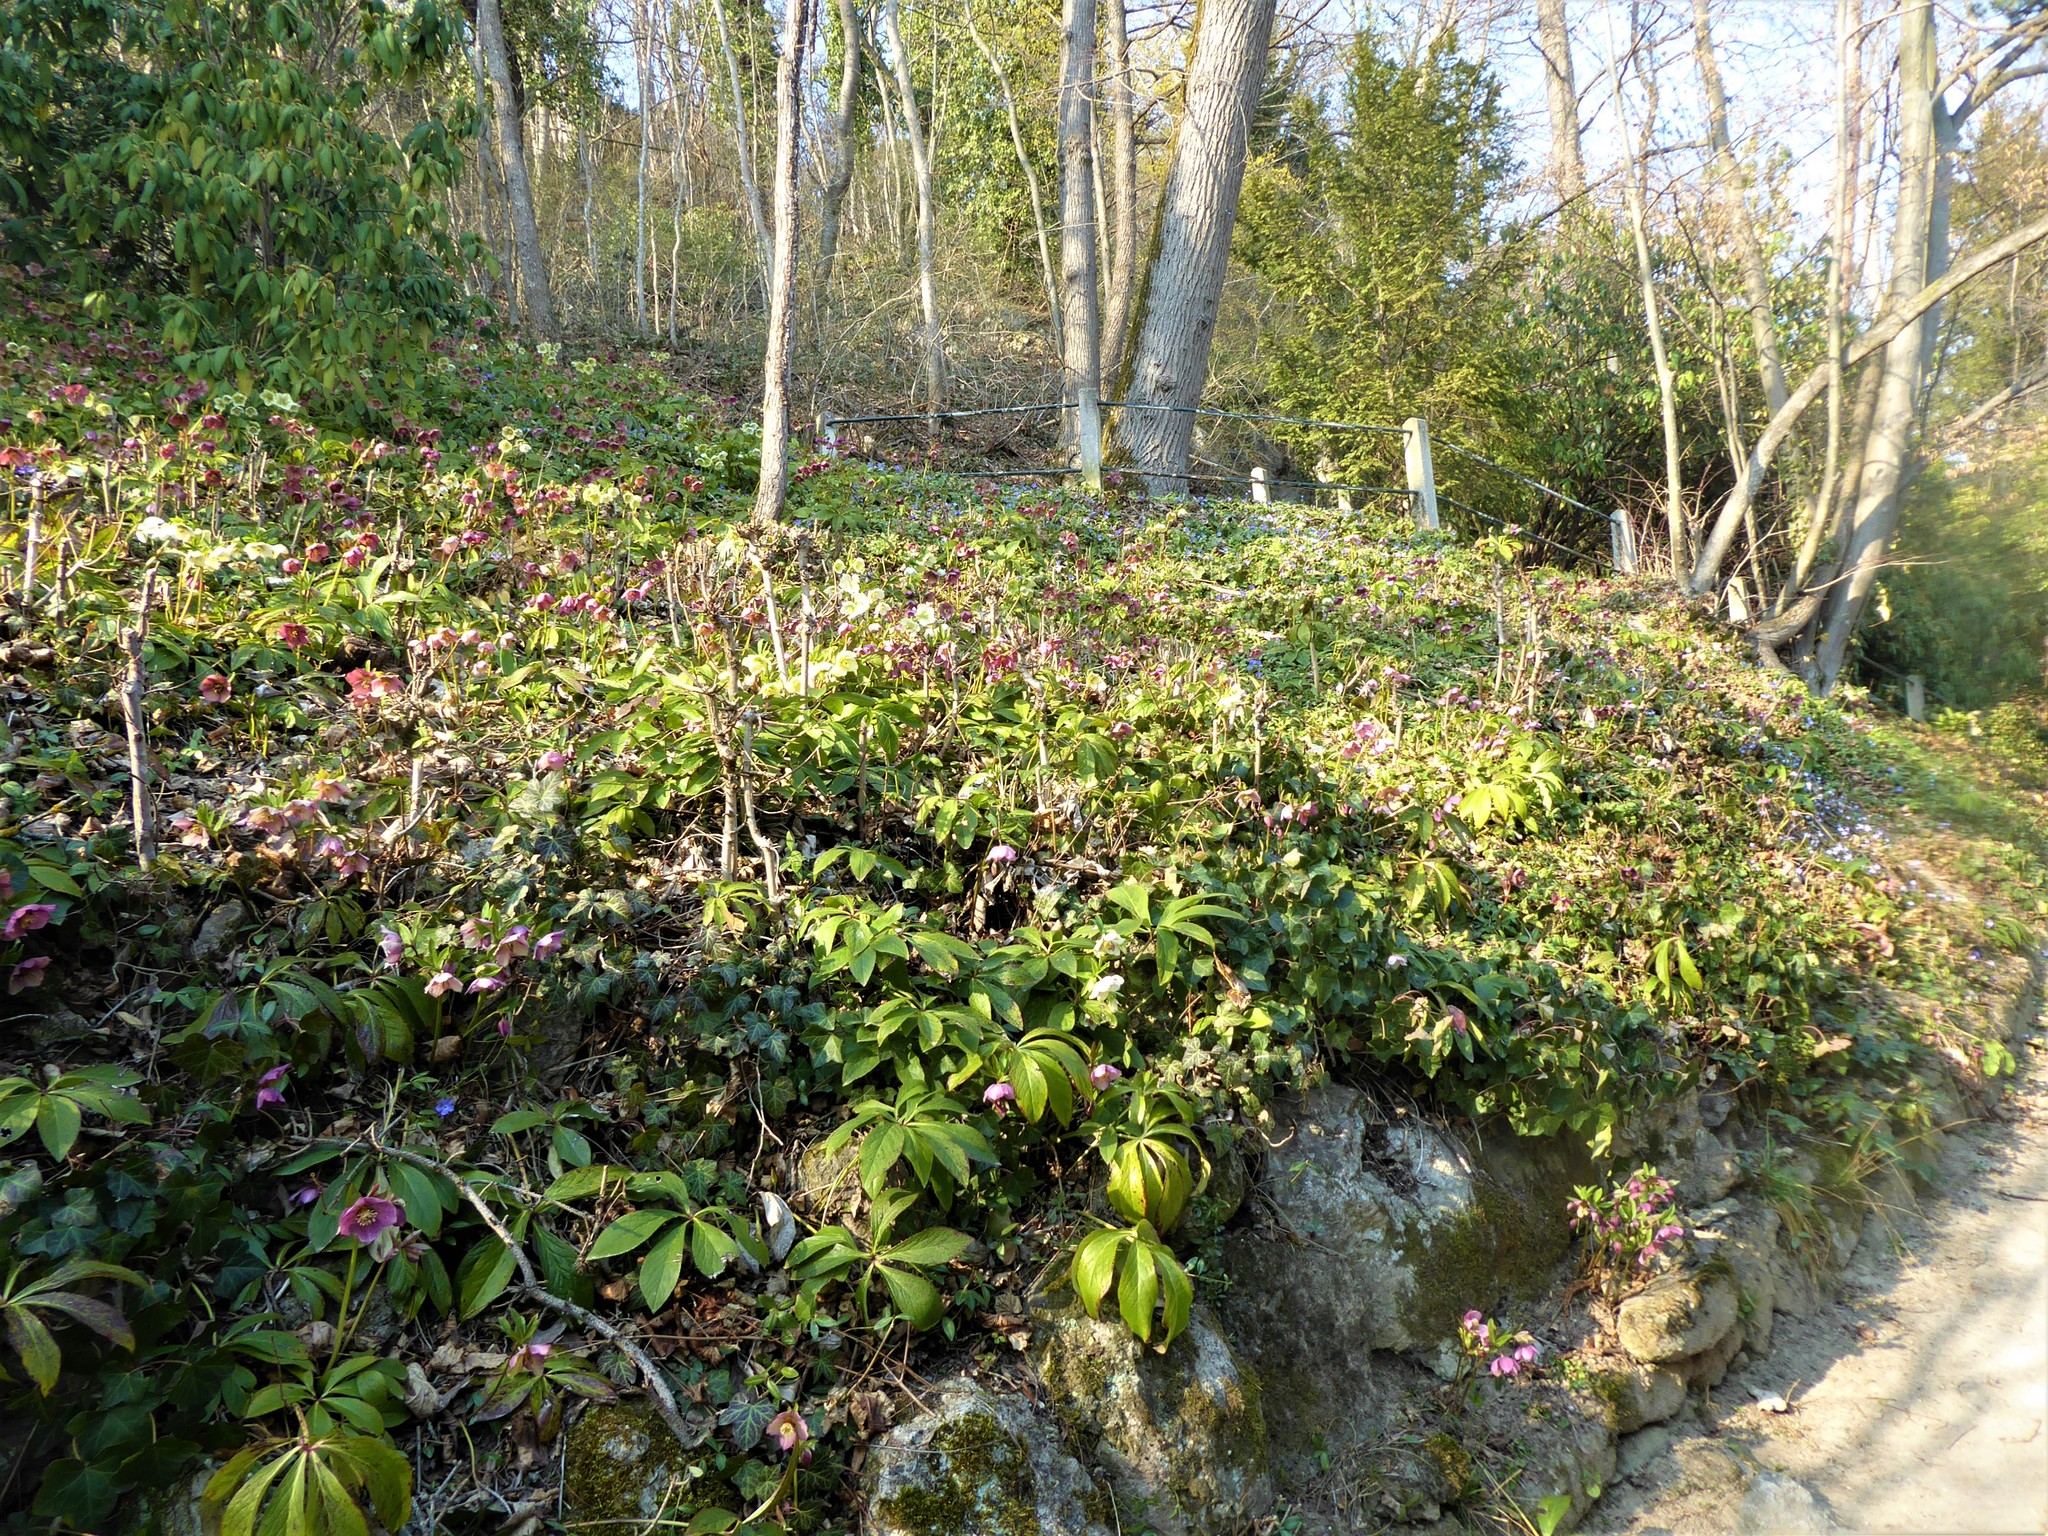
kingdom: Plantae
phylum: Tracheophyta
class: Magnoliopsida
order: Ranunculales
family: Ranunculaceae
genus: Helleborus
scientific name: Helleborus hybridus
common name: Hybrid lenten-rose
